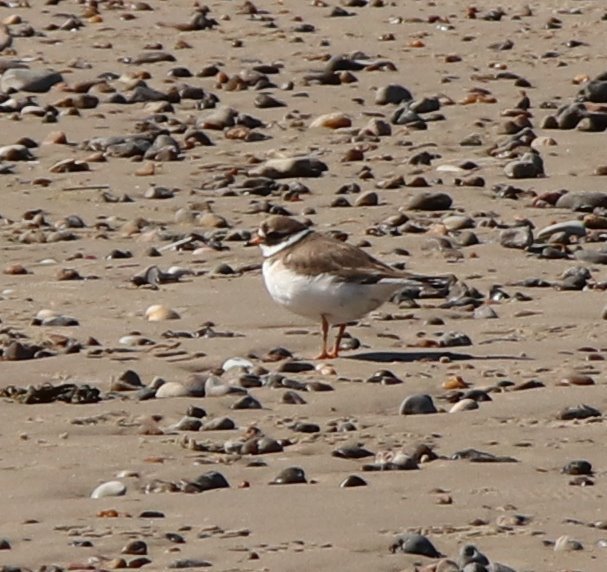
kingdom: Animalia
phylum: Chordata
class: Aves
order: Charadriiformes
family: Charadriidae
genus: Charadrius
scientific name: Charadrius hiaticula
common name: Common ringed plover
